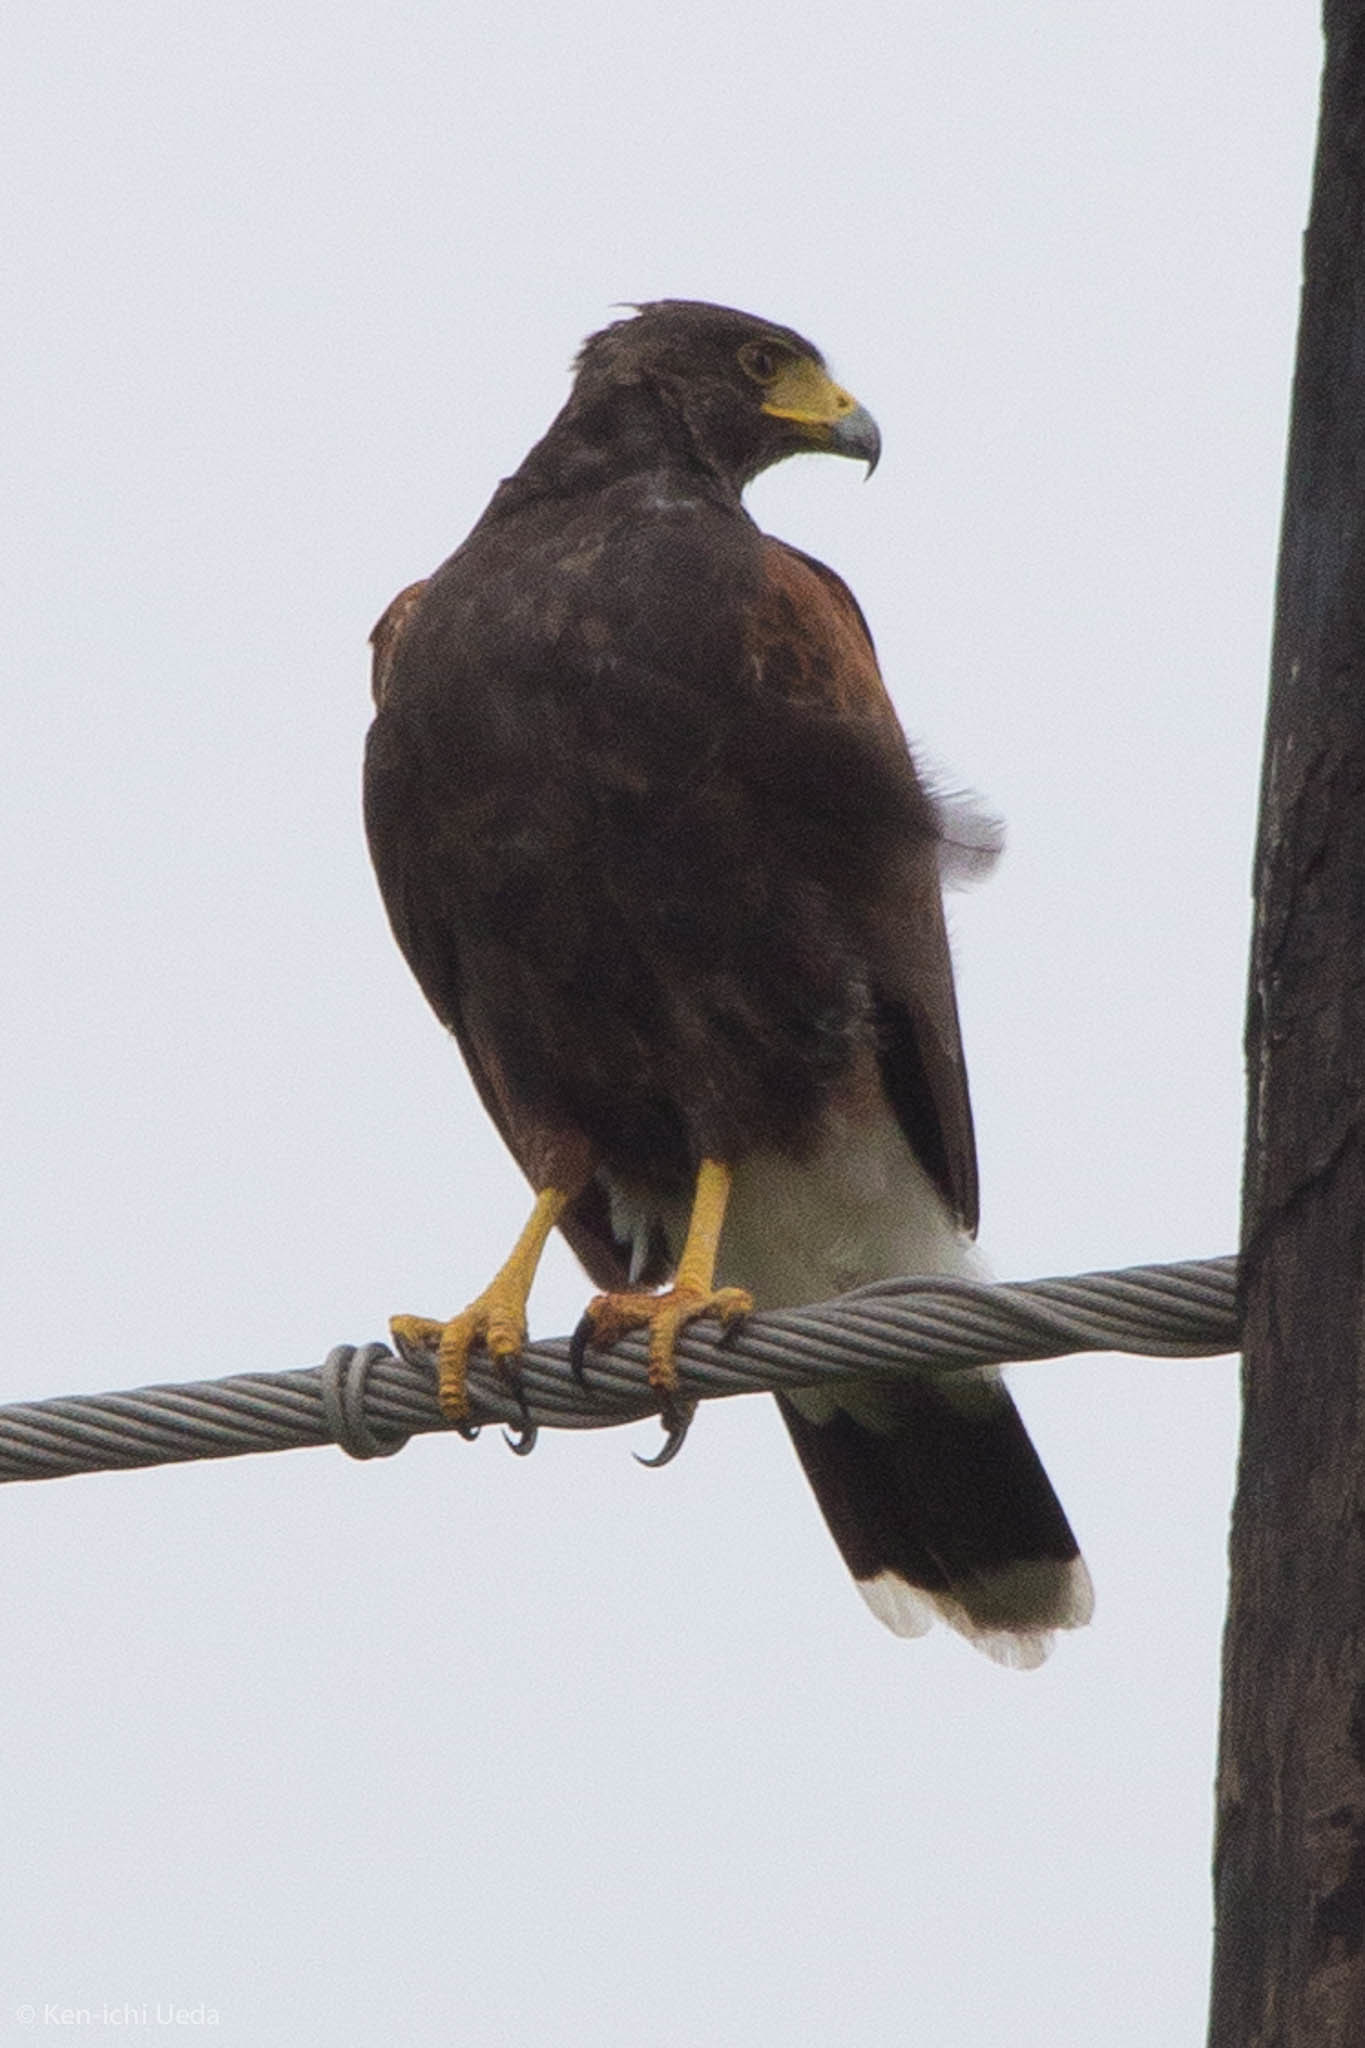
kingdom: Animalia
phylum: Chordata
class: Aves
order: Accipitriformes
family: Accipitridae
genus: Parabuteo
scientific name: Parabuteo unicinctus
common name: Harris's hawk
